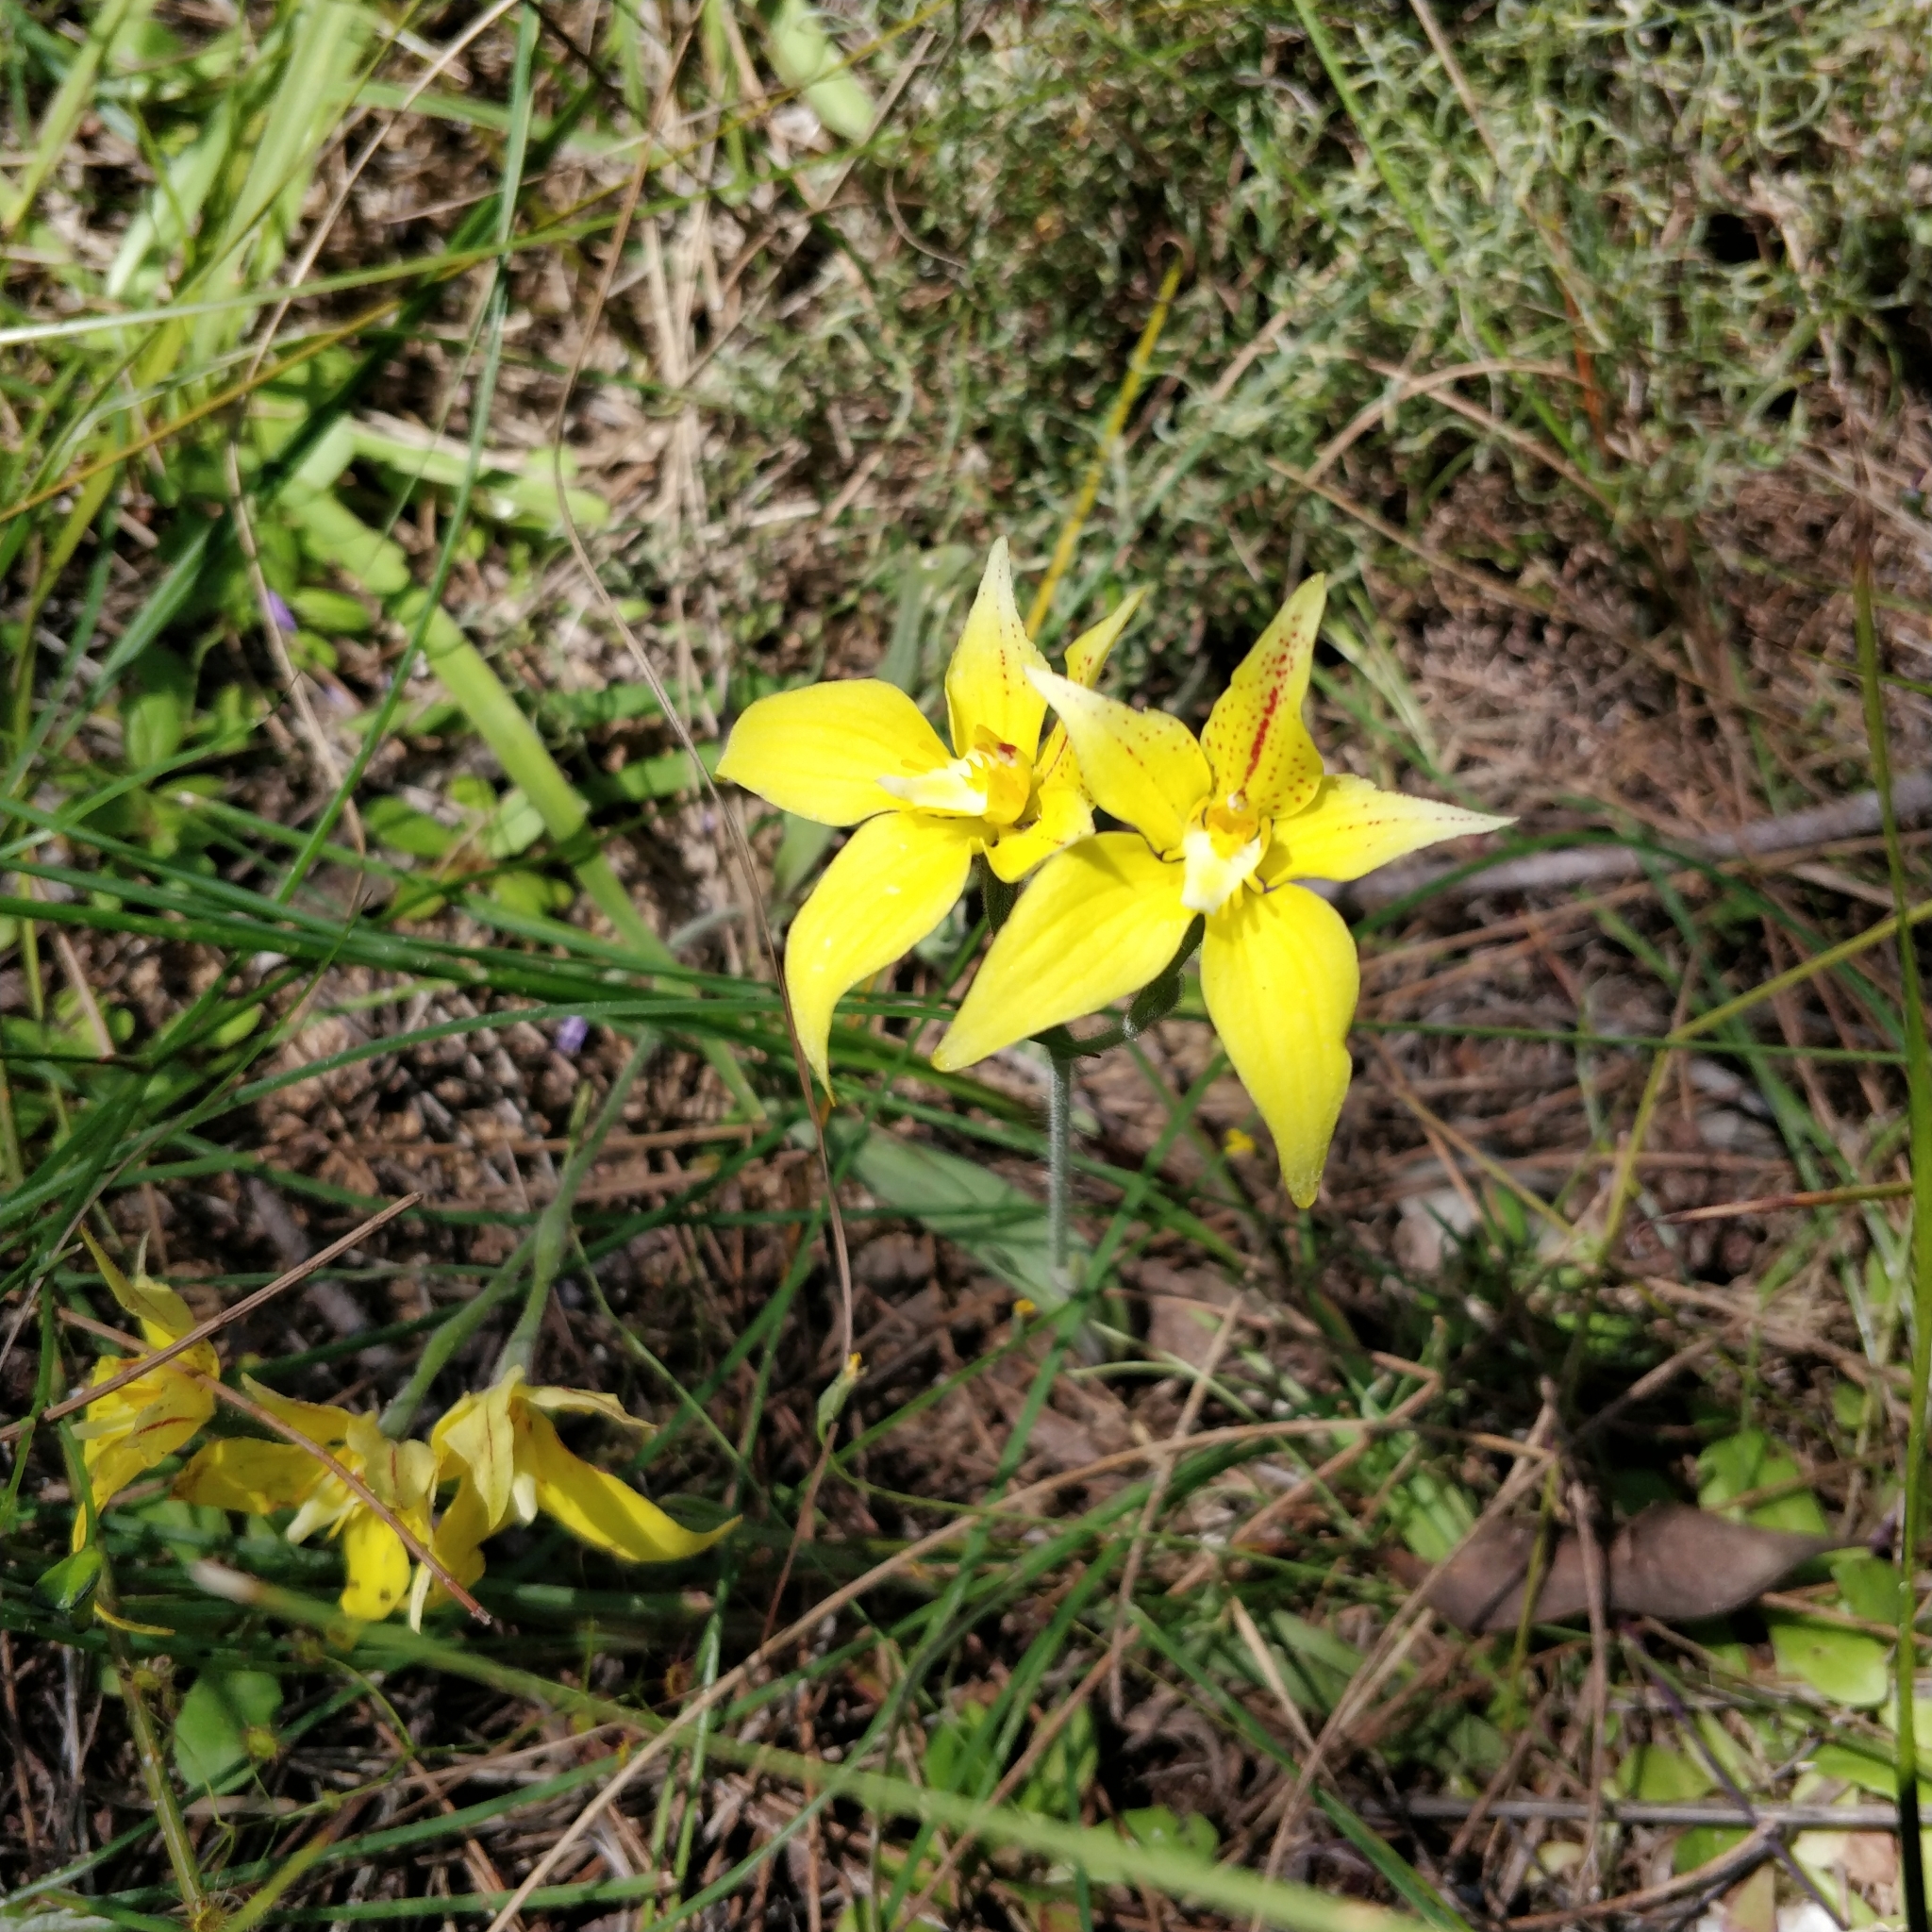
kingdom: Plantae
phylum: Tracheophyta
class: Liliopsida
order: Asparagales
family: Orchidaceae
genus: Caladenia
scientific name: Caladenia flava
